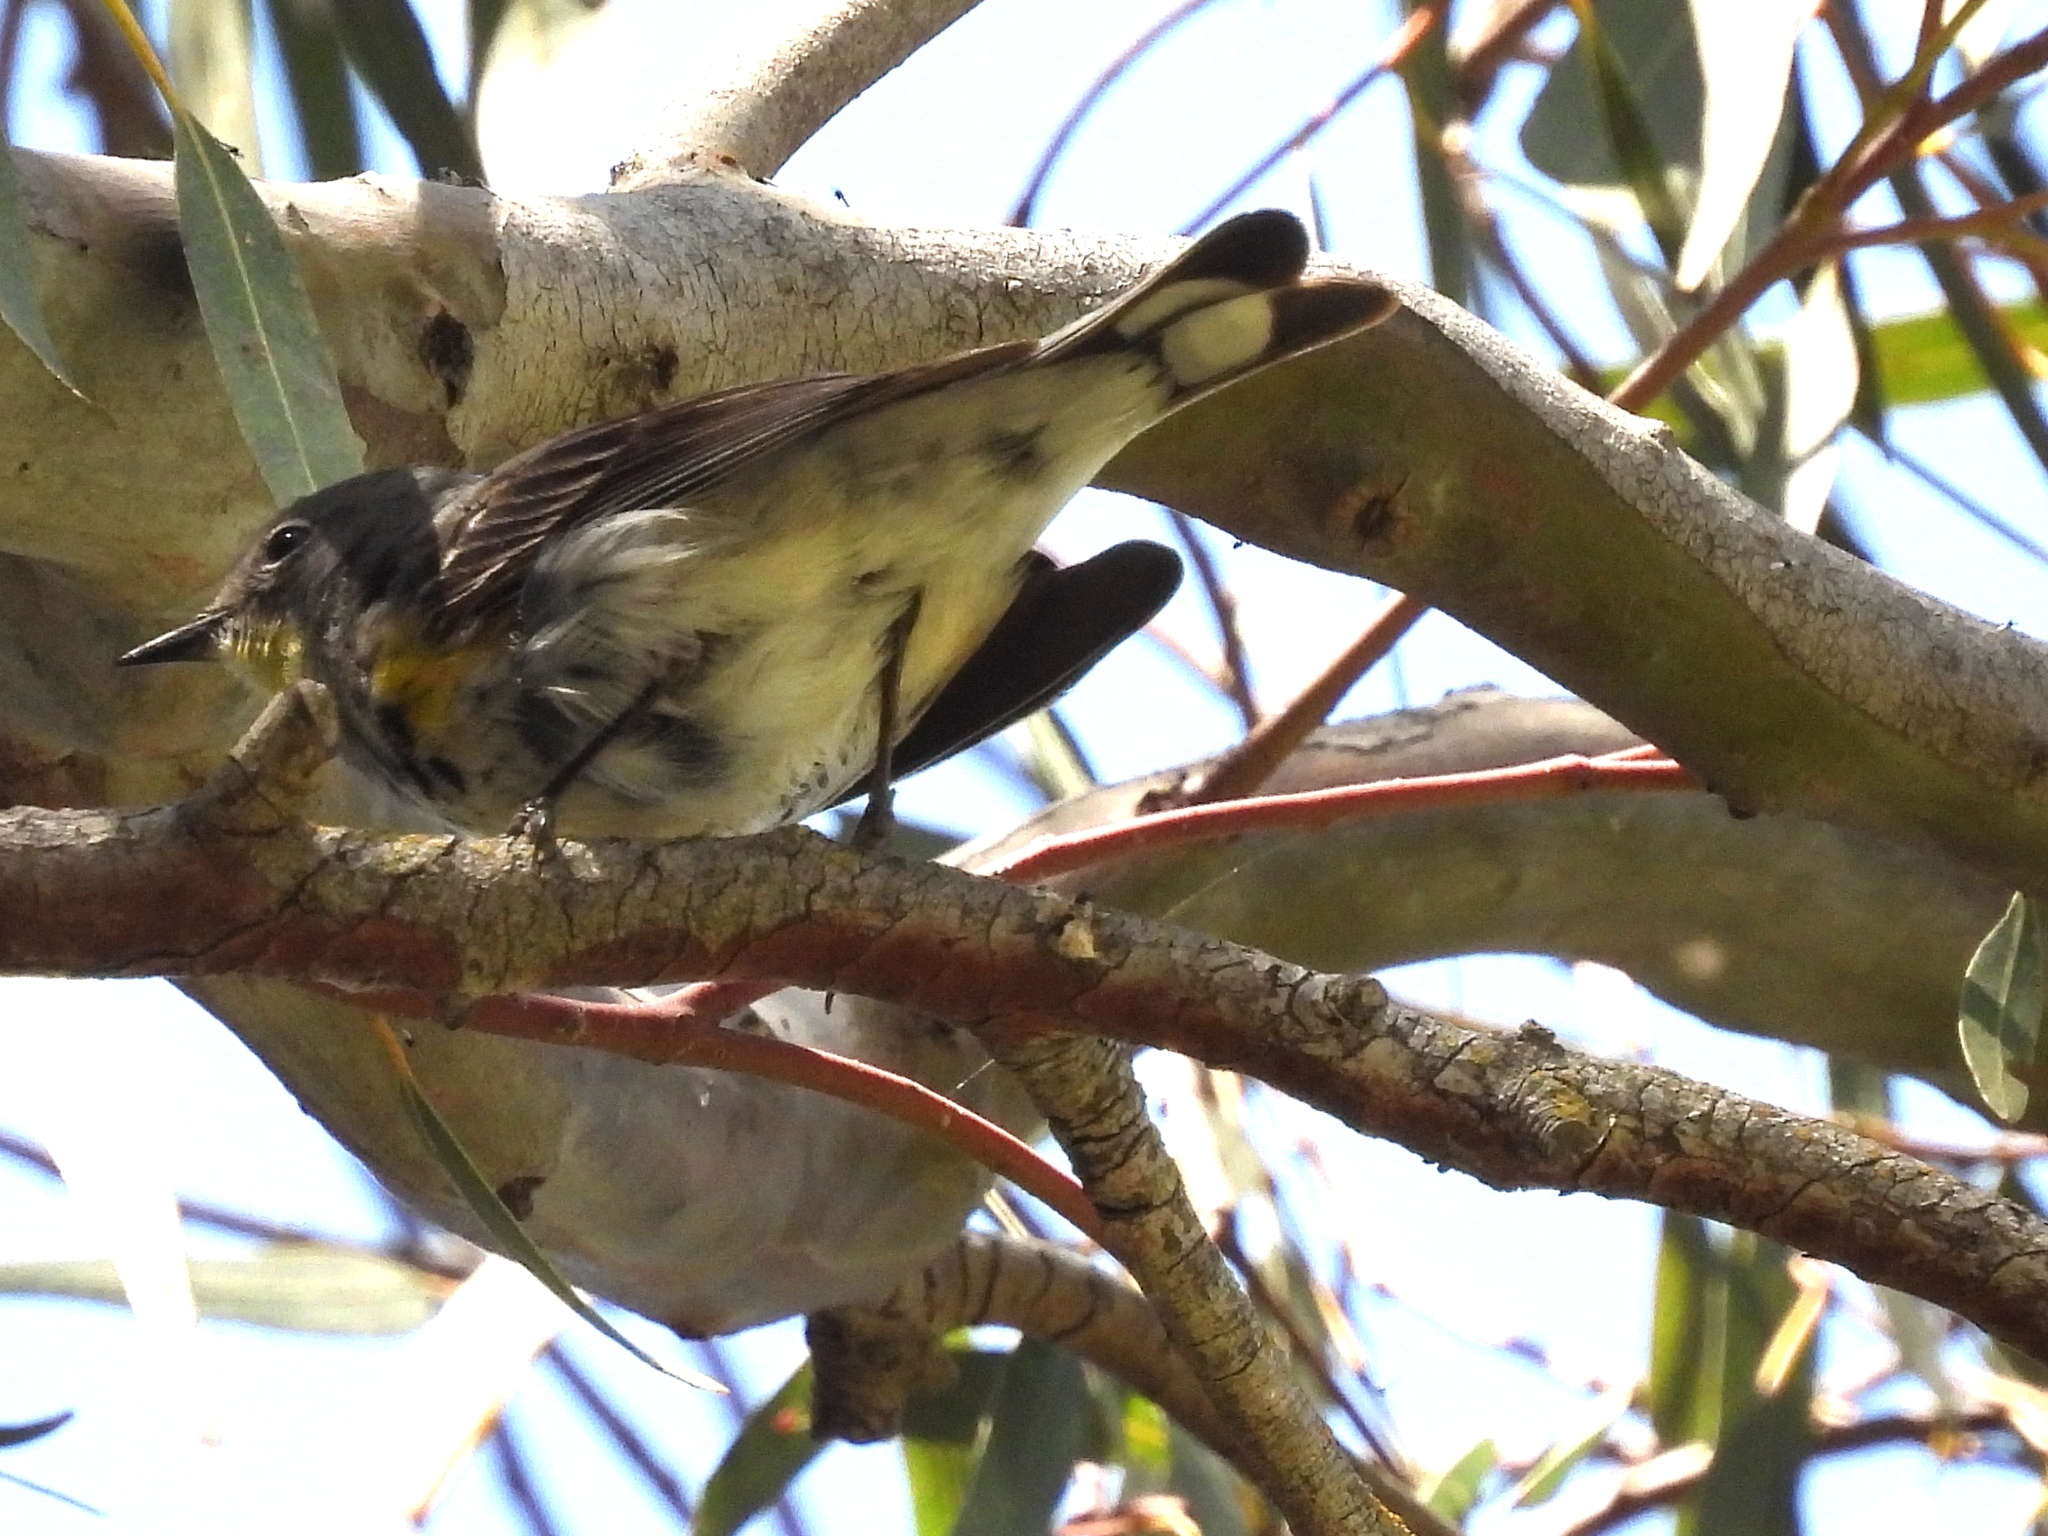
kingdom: Animalia
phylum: Chordata
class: Aves
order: Passeriformes
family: Parulidae
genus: Setophaga
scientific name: Setophaga coronata
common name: Myrtle warbler
